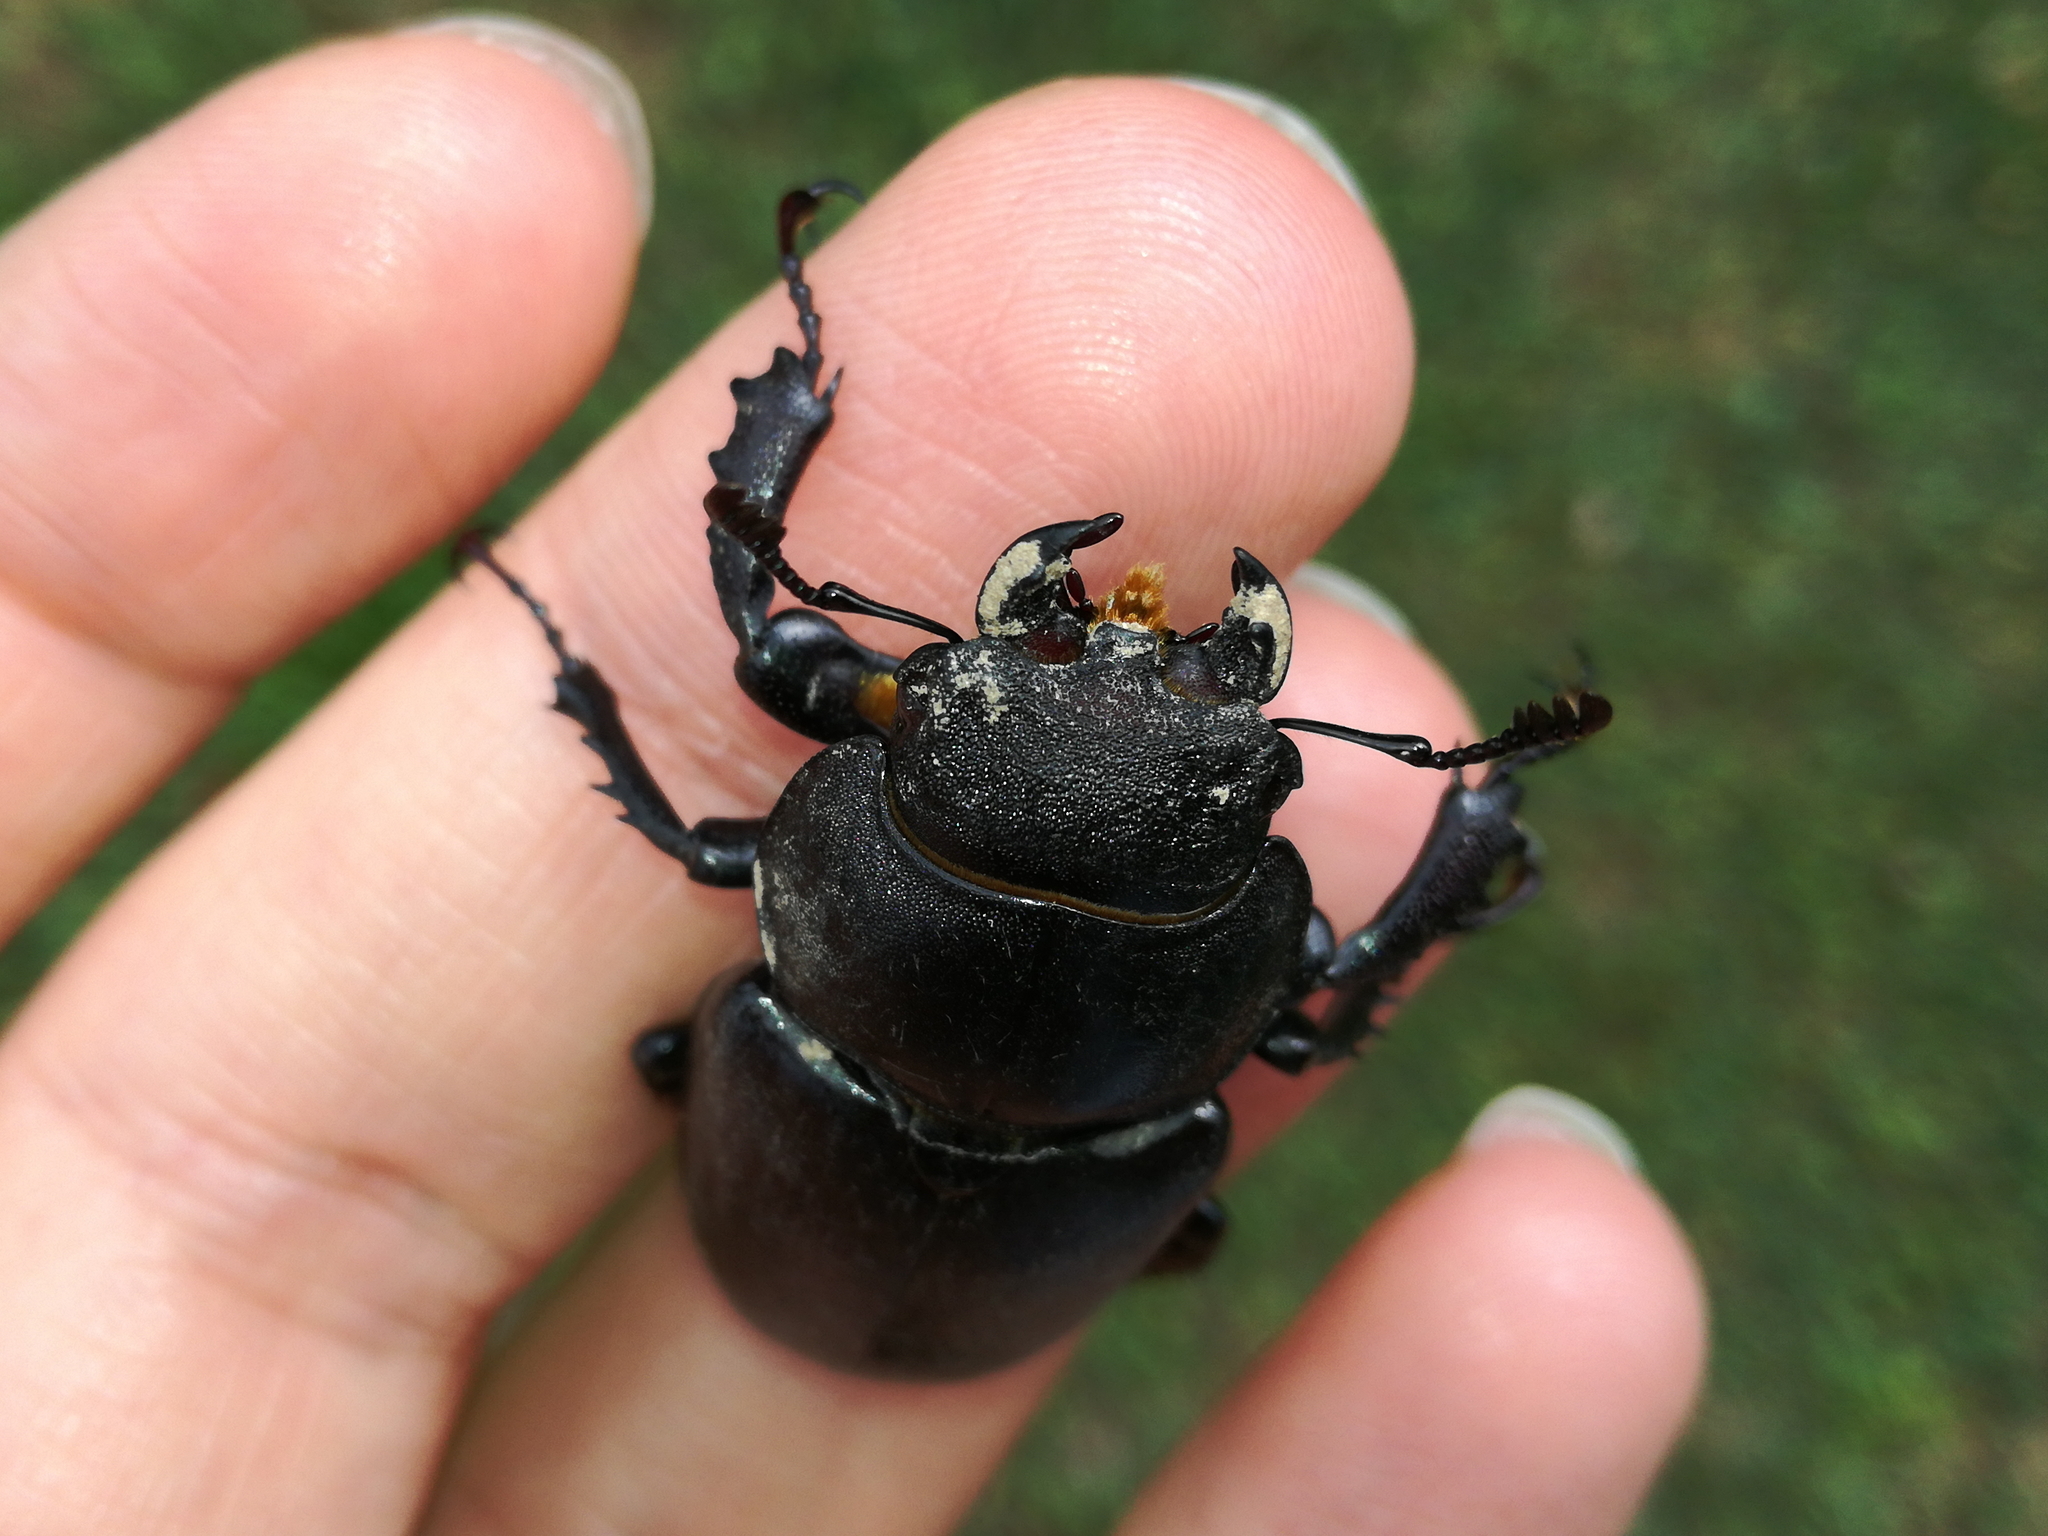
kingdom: Animalia
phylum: Arthropoda
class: Insecta
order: Coleoptera
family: Lucanidae
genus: Lucanus
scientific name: Lucanus cervus
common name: Stag beetle
